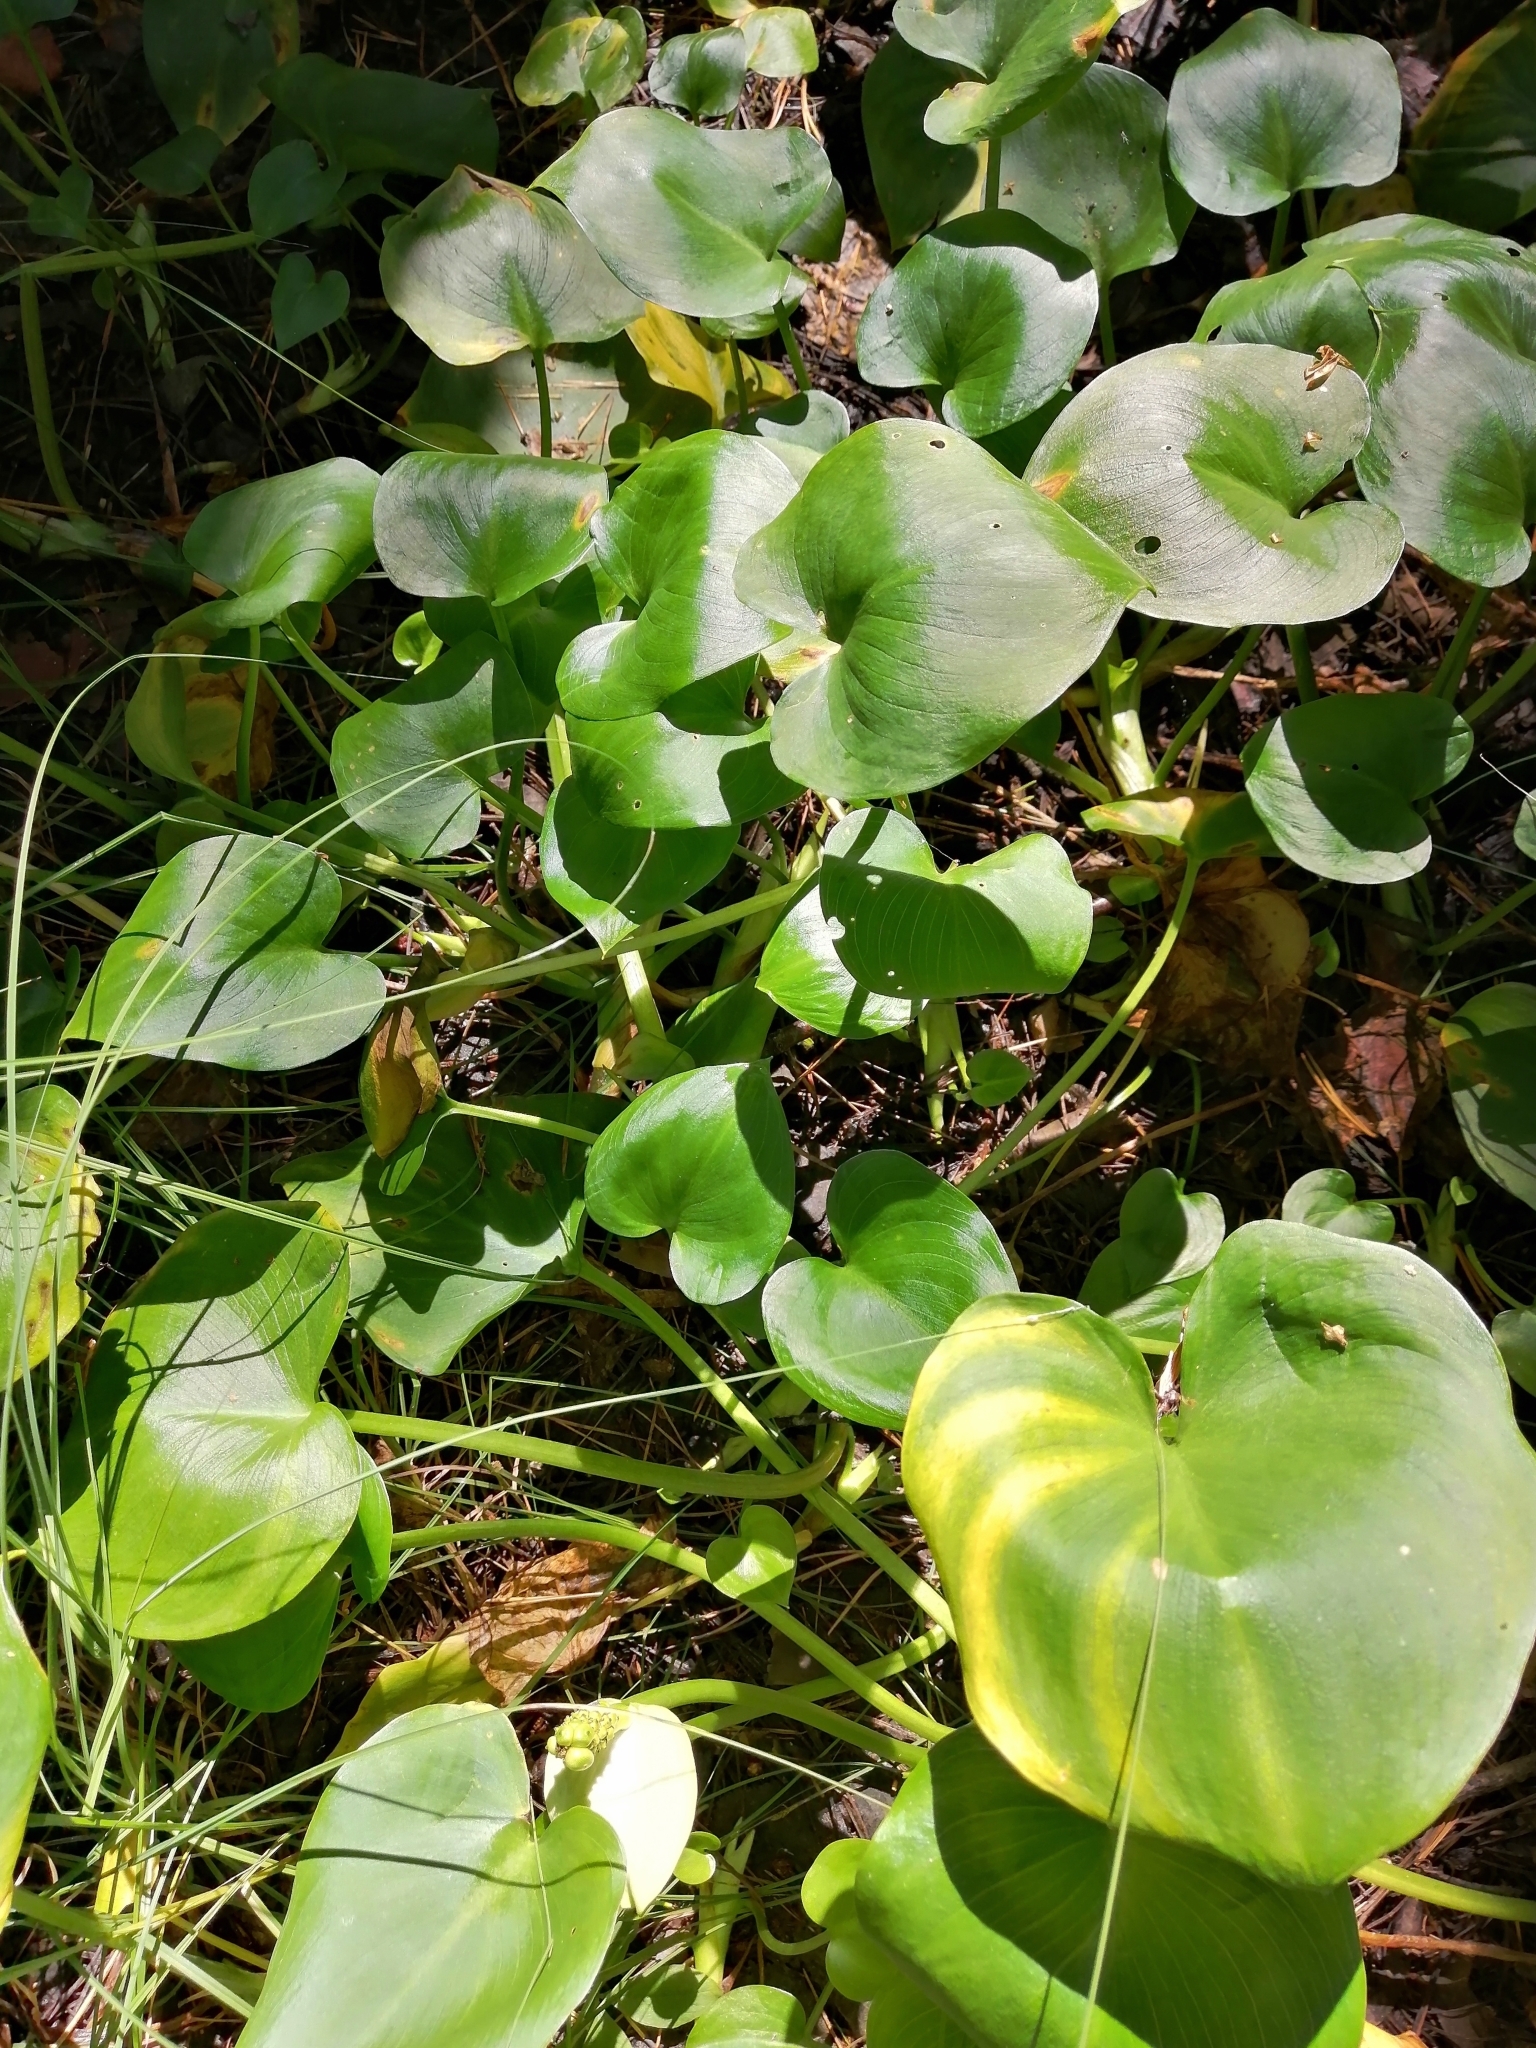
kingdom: Plantae
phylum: Tracheophyta
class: Liliopsida
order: Alismatales
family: Araceae
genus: Calla
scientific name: Calla palustris
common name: Bog arum
